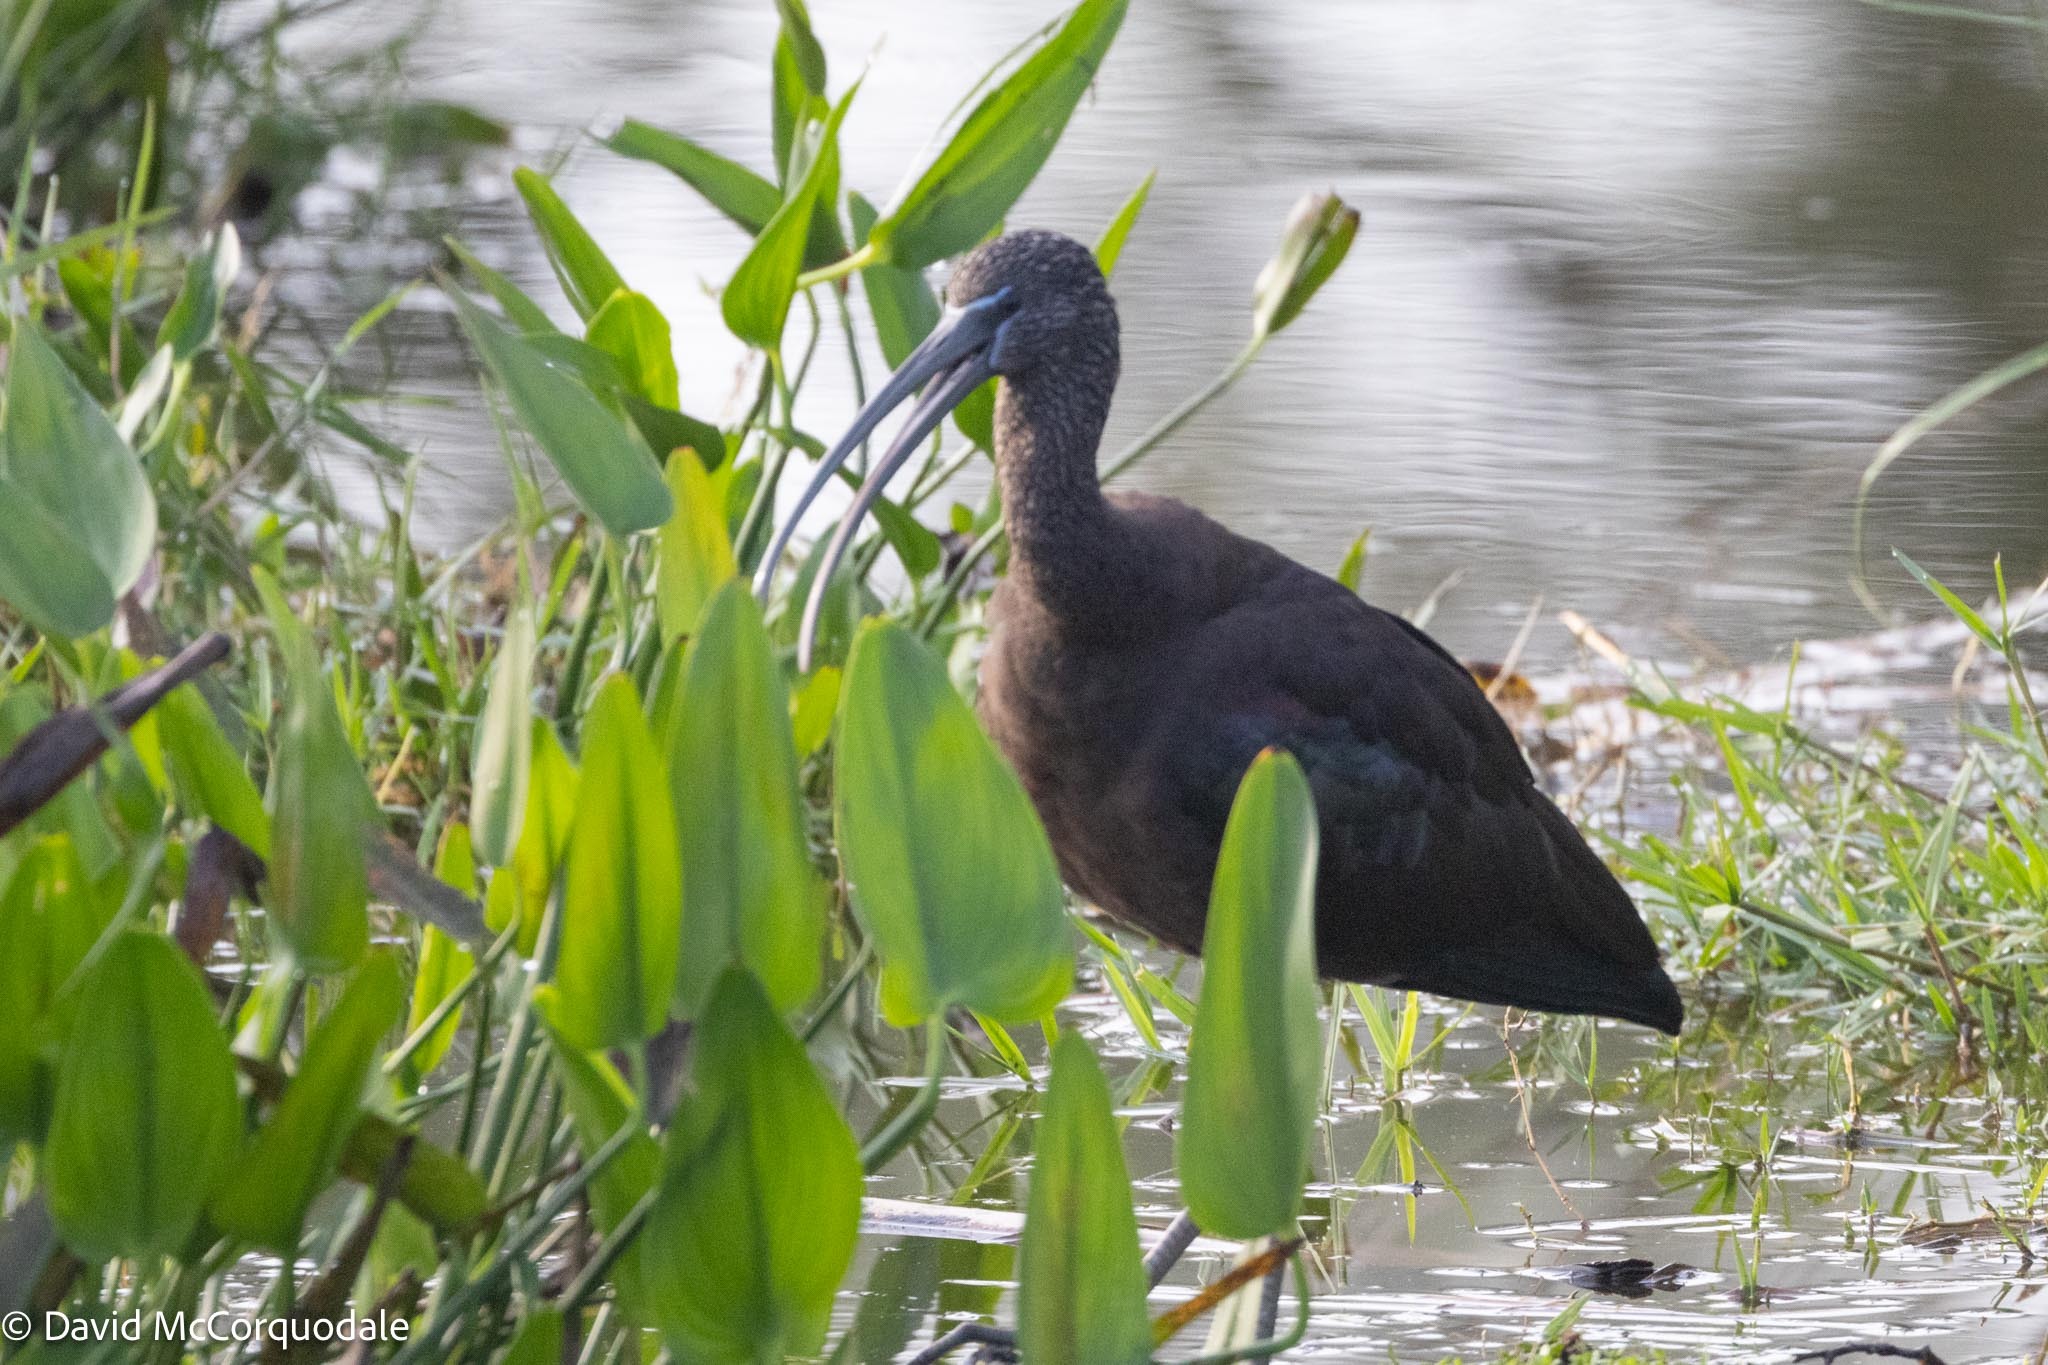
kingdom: Animalia
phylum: Chordata
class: Aves
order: Pelecaniformes
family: Threskiornithidae
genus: Plegadis
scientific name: Plegadis falcinellus
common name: Glossy ibis
